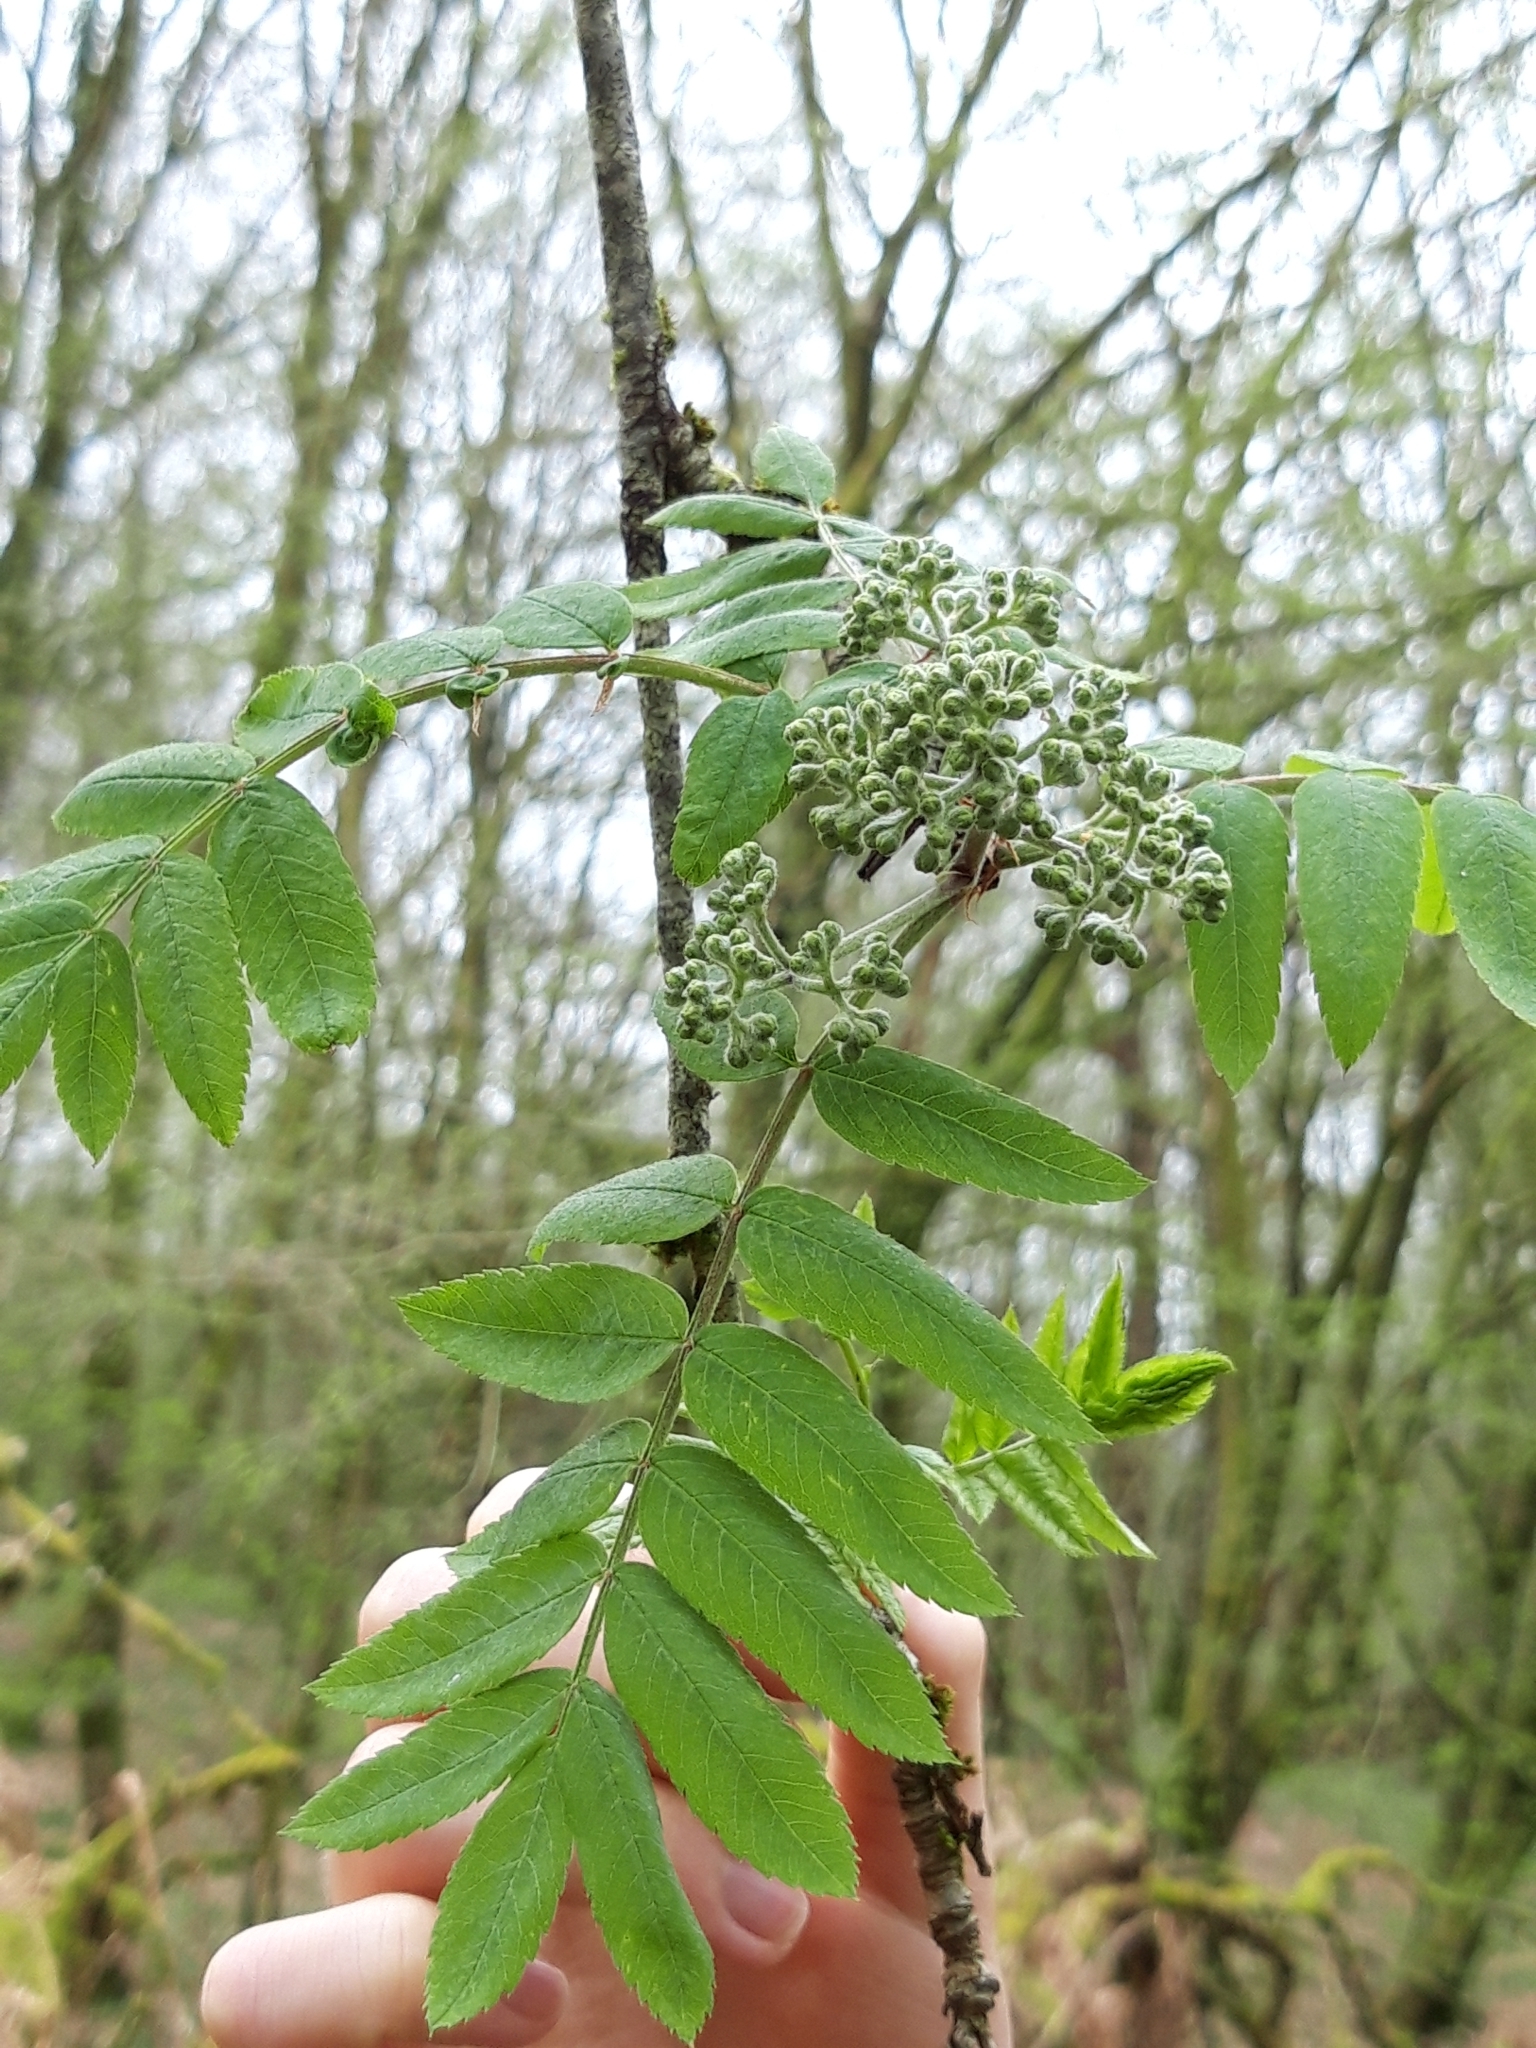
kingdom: Plantae
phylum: Tracheophyta
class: Magnoliopsida
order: Rosales
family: Rosaceae
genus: Sorbus
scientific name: Sorbus aucuparia
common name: Rowan
